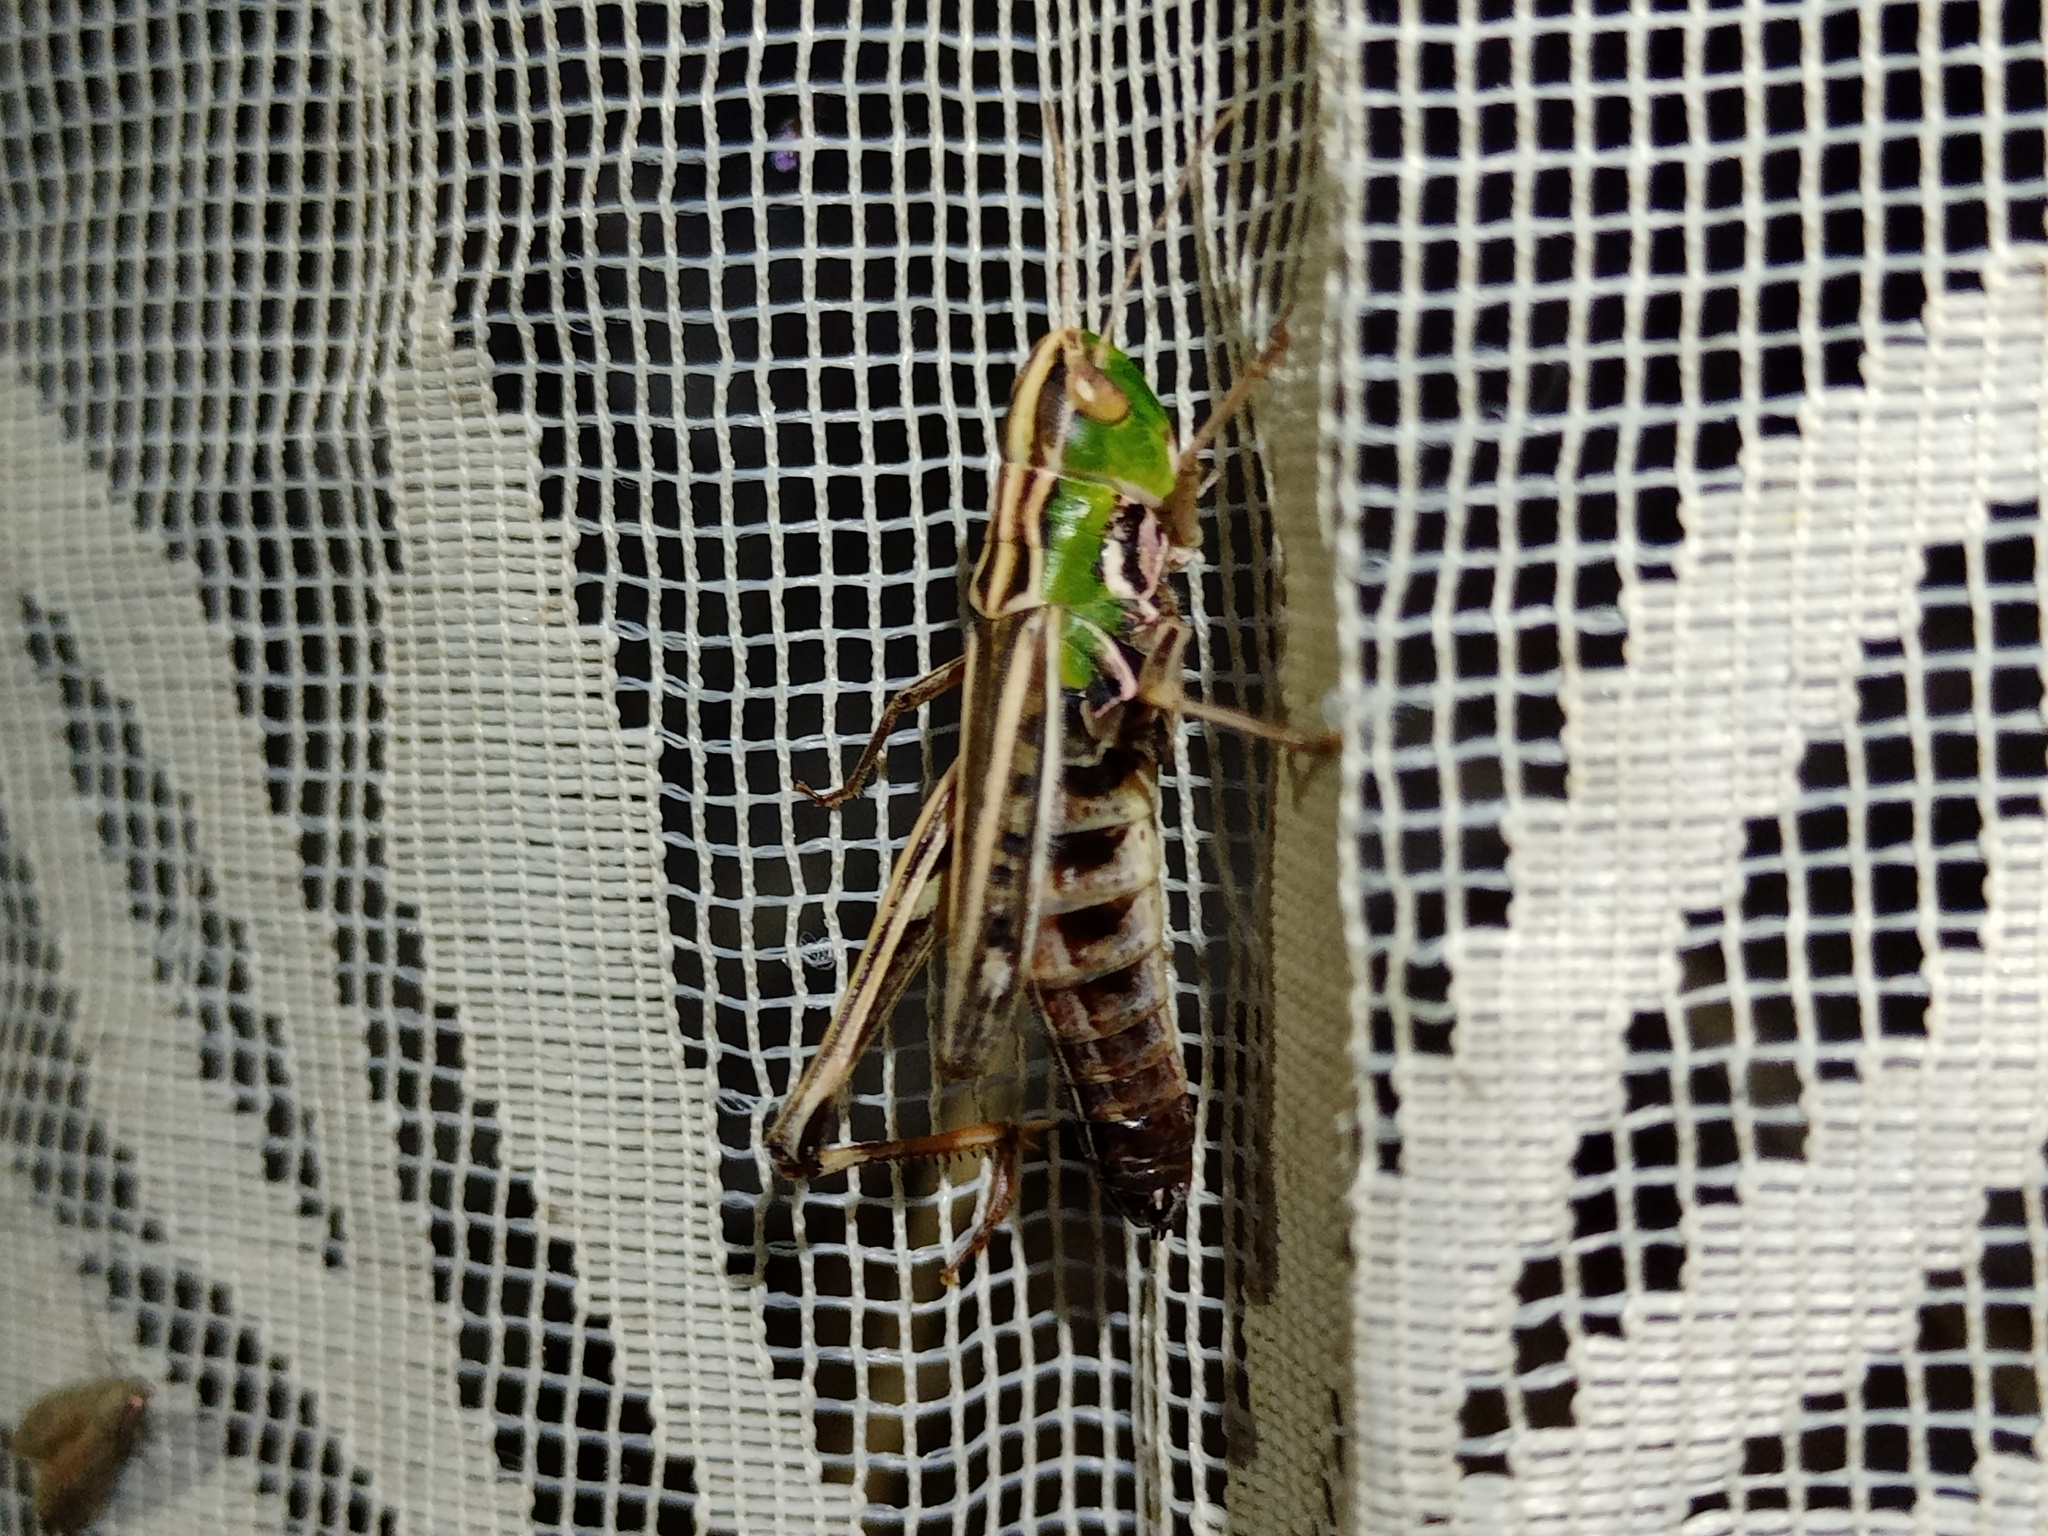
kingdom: Animalia
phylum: Arthropoda
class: Insecta
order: Orthoptera
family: Acrididae
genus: Stenobothrus
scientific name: Stenobothrus nigromaculatus
